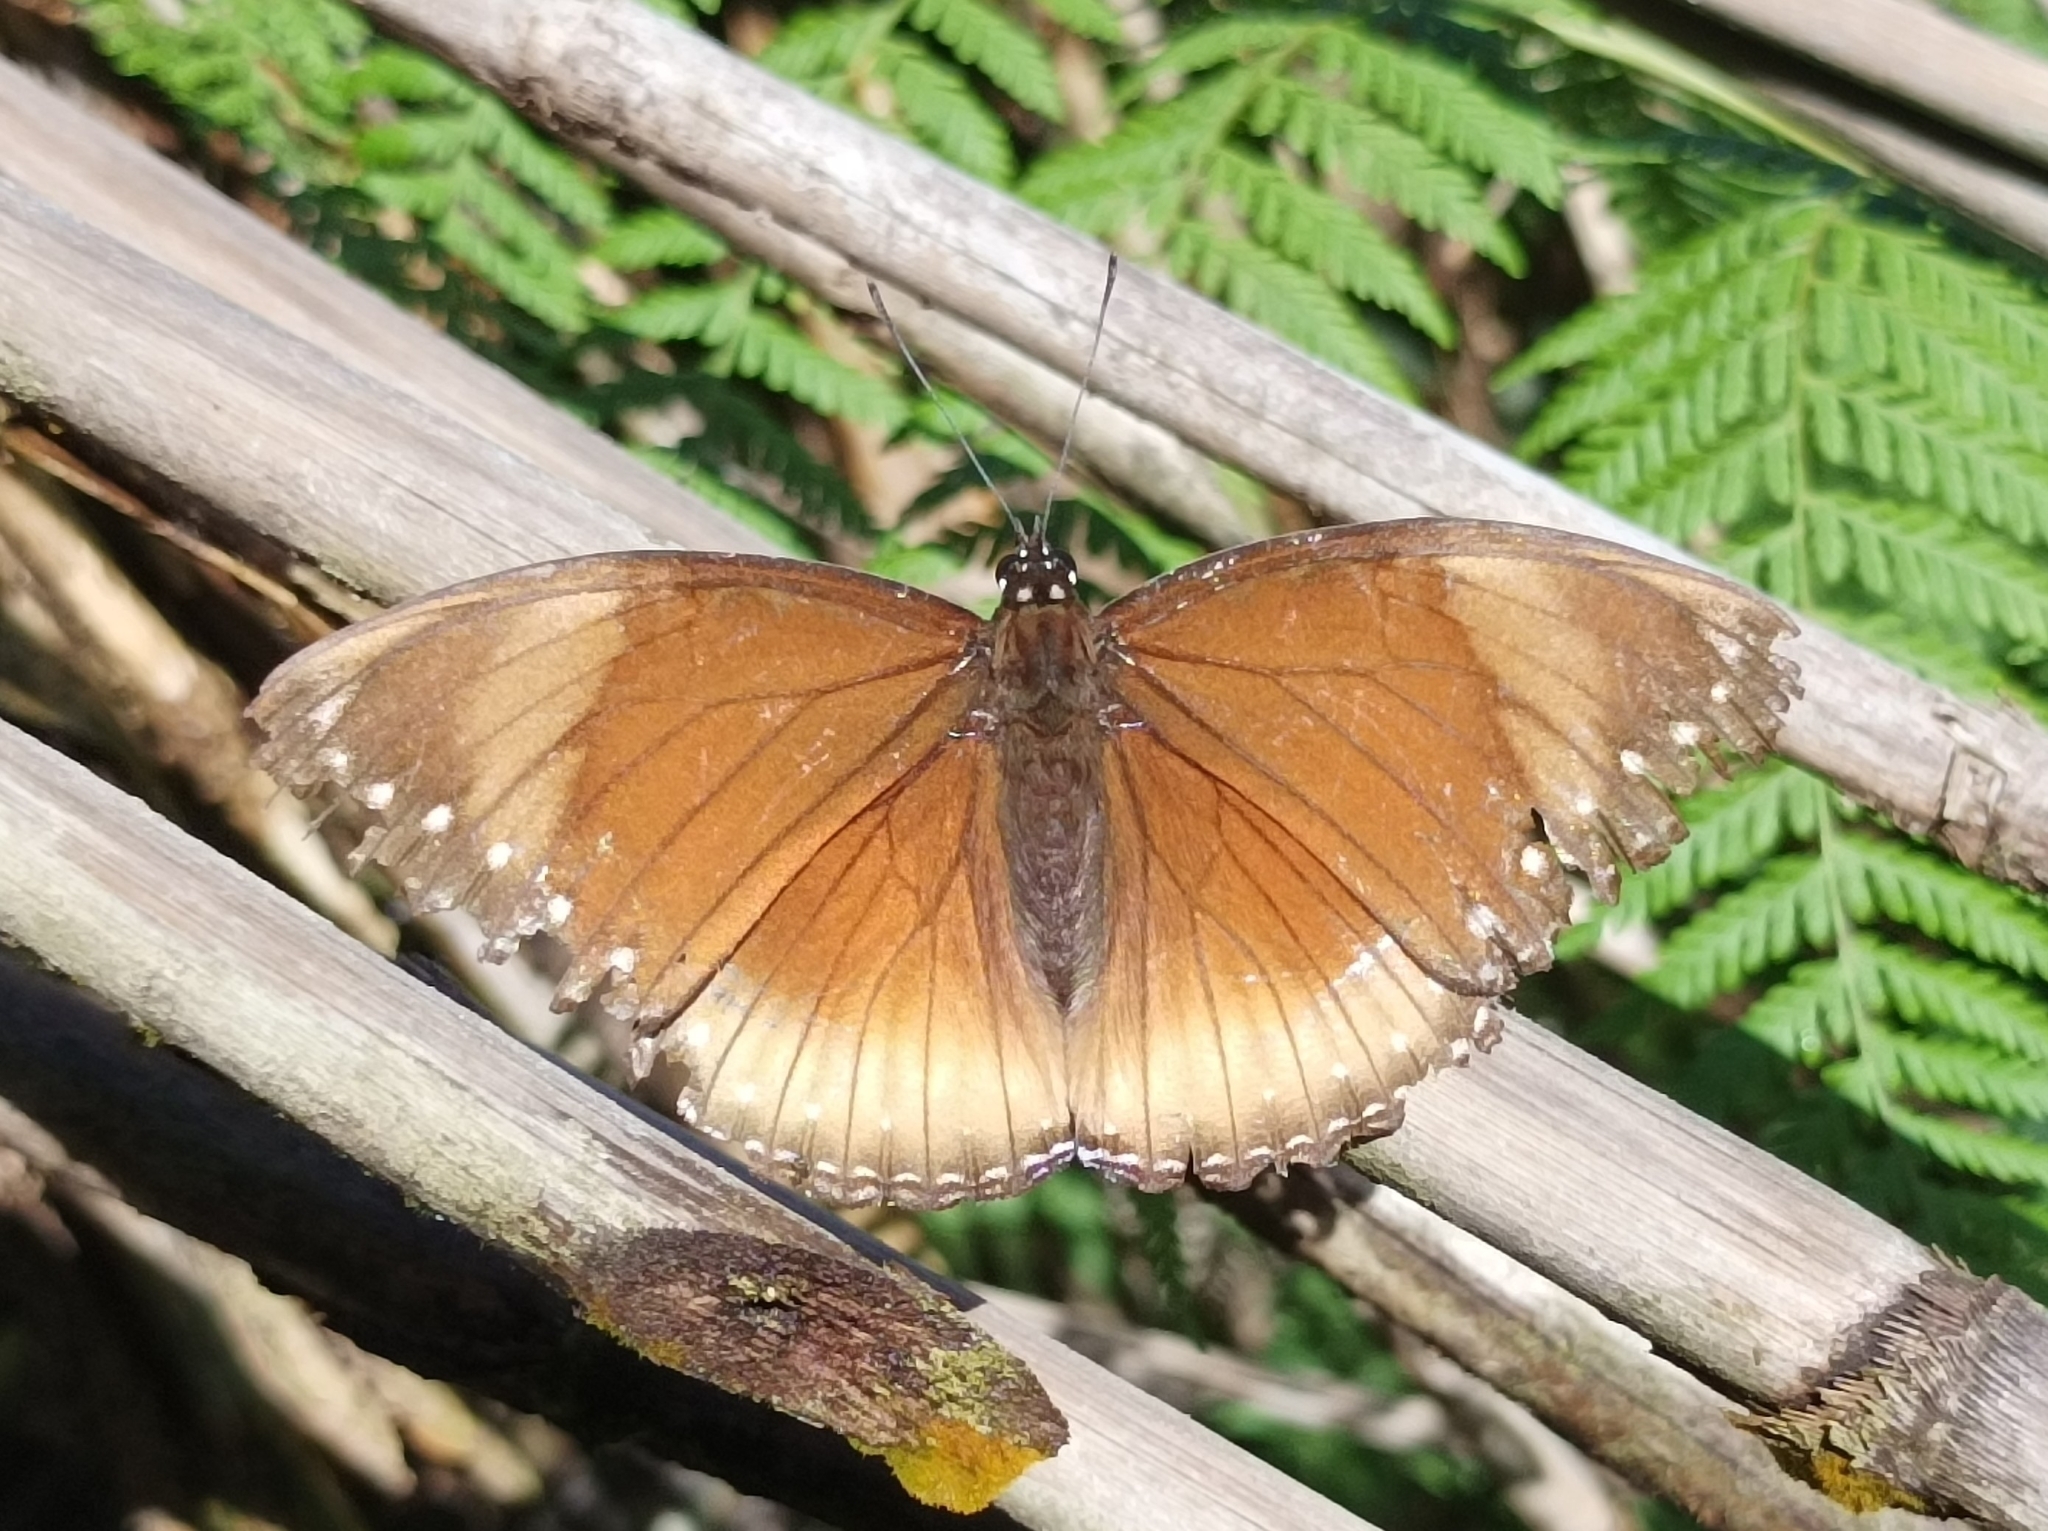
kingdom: Animalia
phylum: Arthropoda
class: Insecta
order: Lepidoptera
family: Nymphalidae
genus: Hypolimnas
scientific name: Hypolimnas antilope
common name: Spotted crow eggfly
